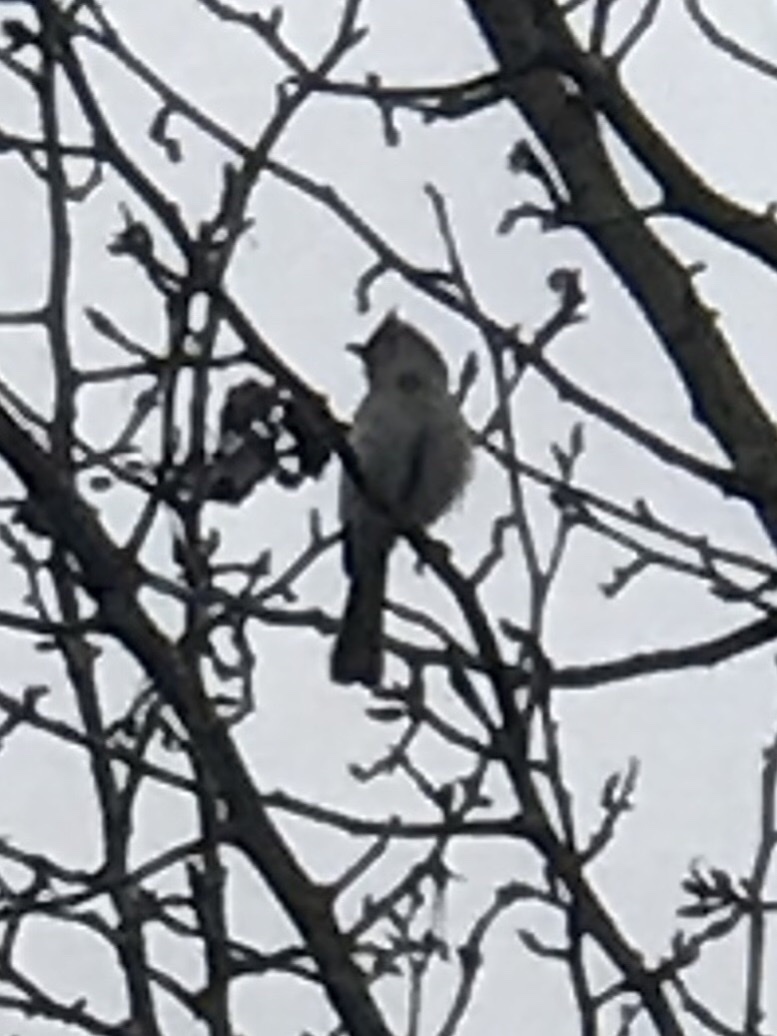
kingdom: Animalia
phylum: Chordata
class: Aves
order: Passeriformes
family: Paridae
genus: Baeolophus
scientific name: Baeolophus bicolor
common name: Tufted titmouse
